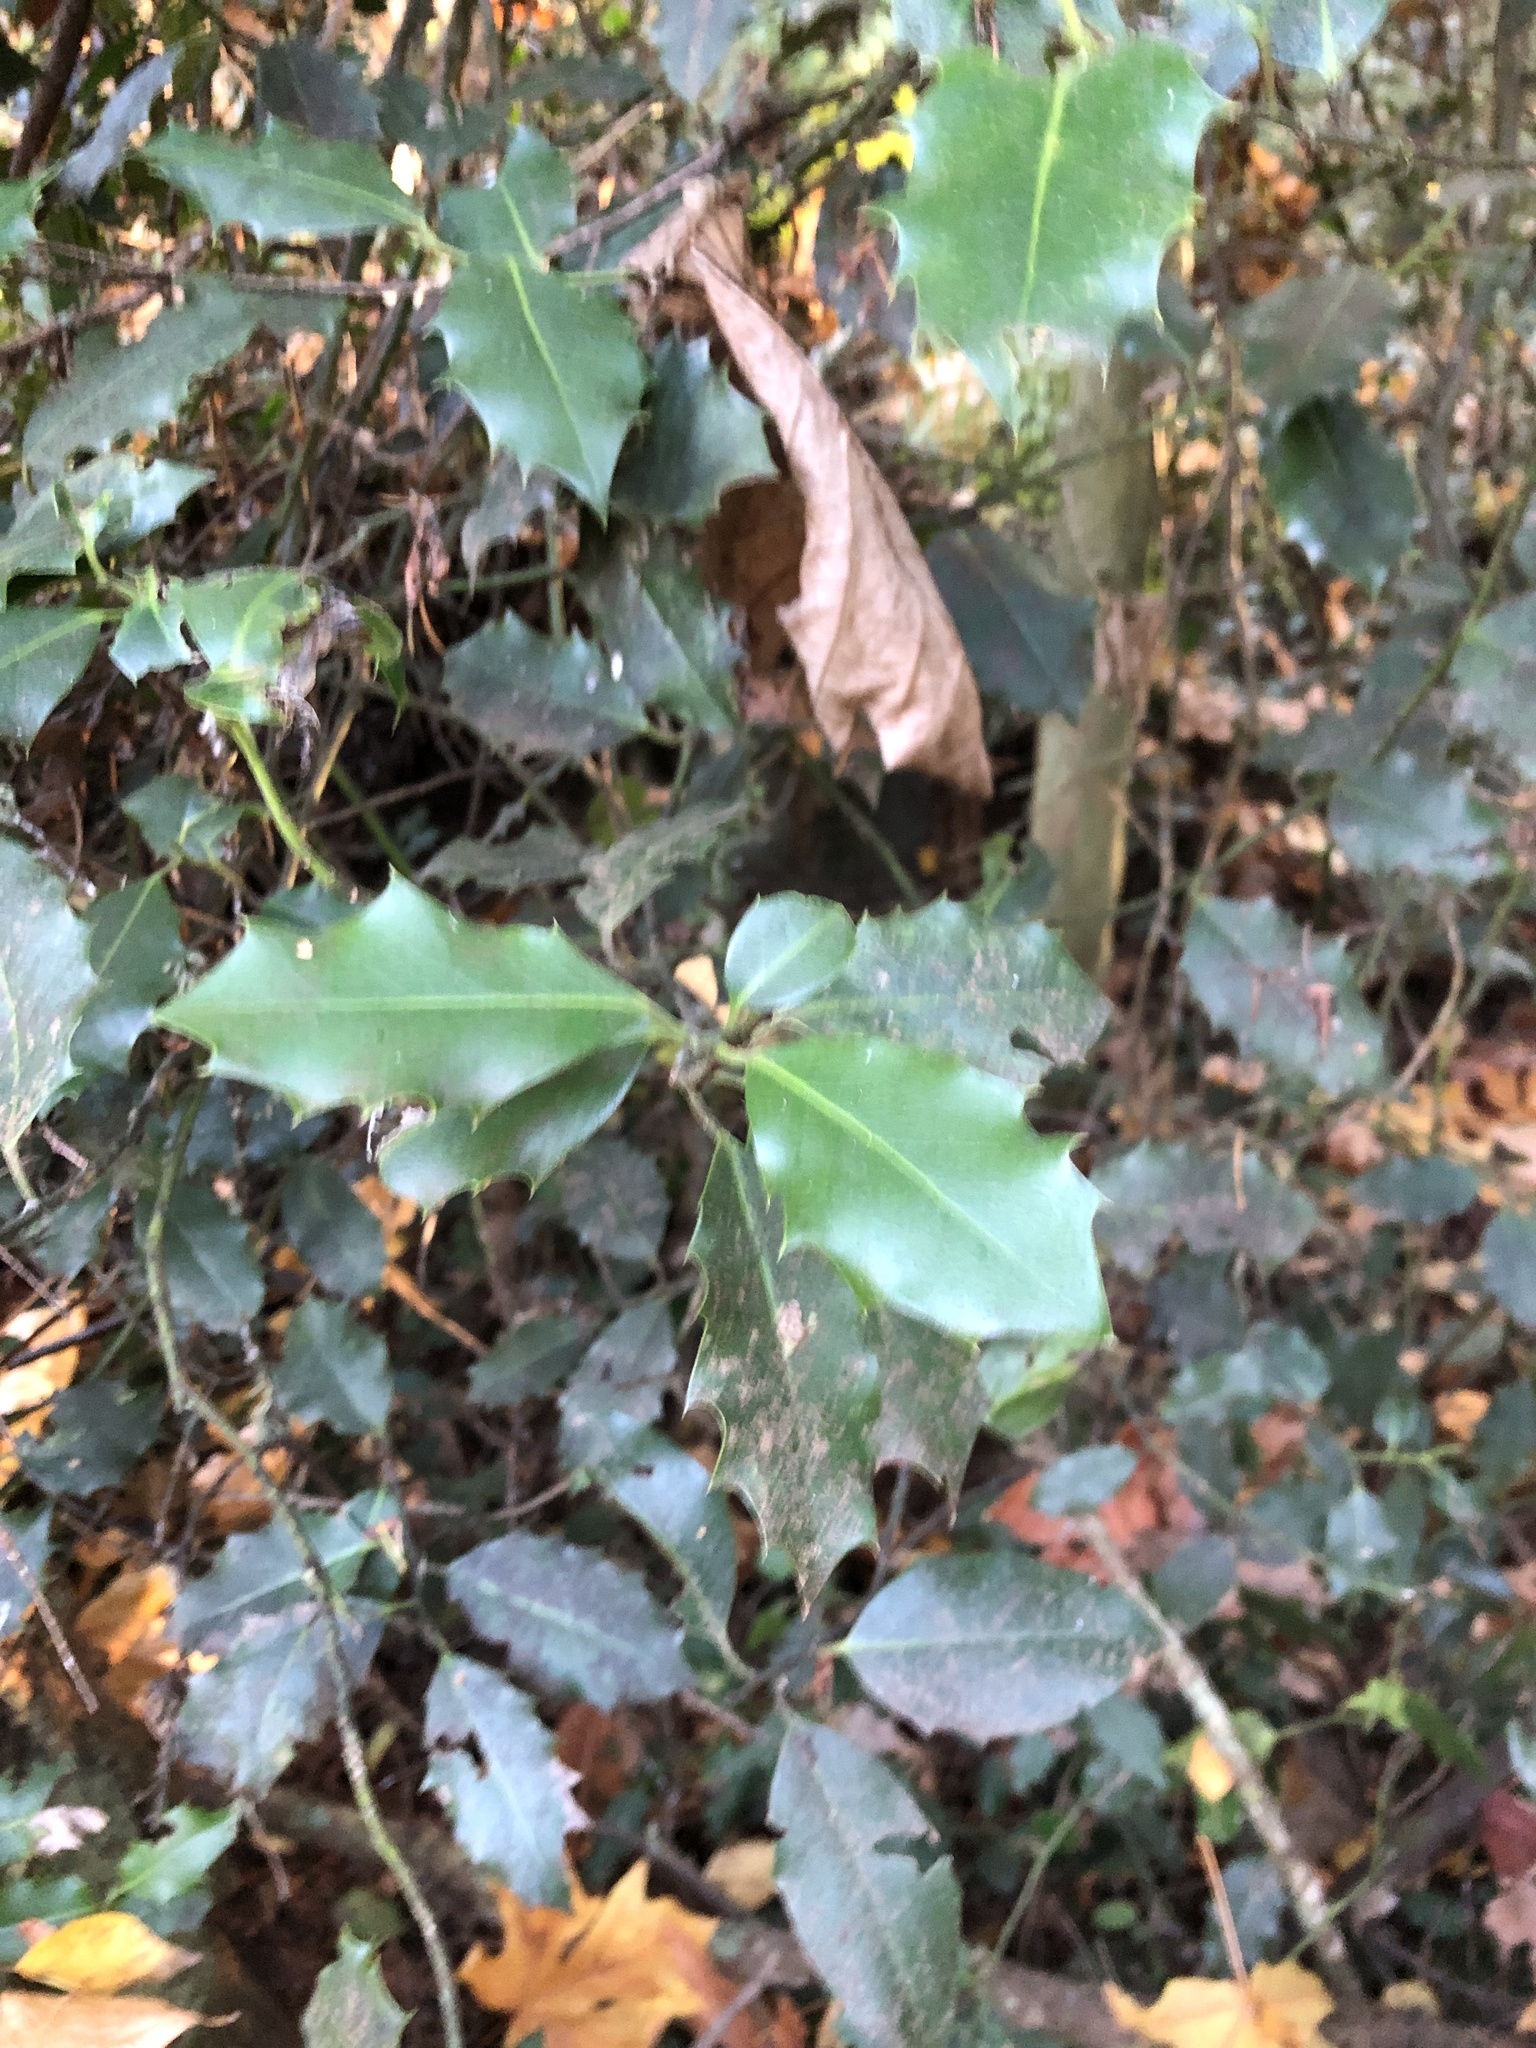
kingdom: Plantae
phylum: Tracheophyta
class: Magnoliopsida
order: Aquifoliales
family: Aquifoliaceae
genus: Ilex
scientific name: Ilex aquifolium
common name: English holly
